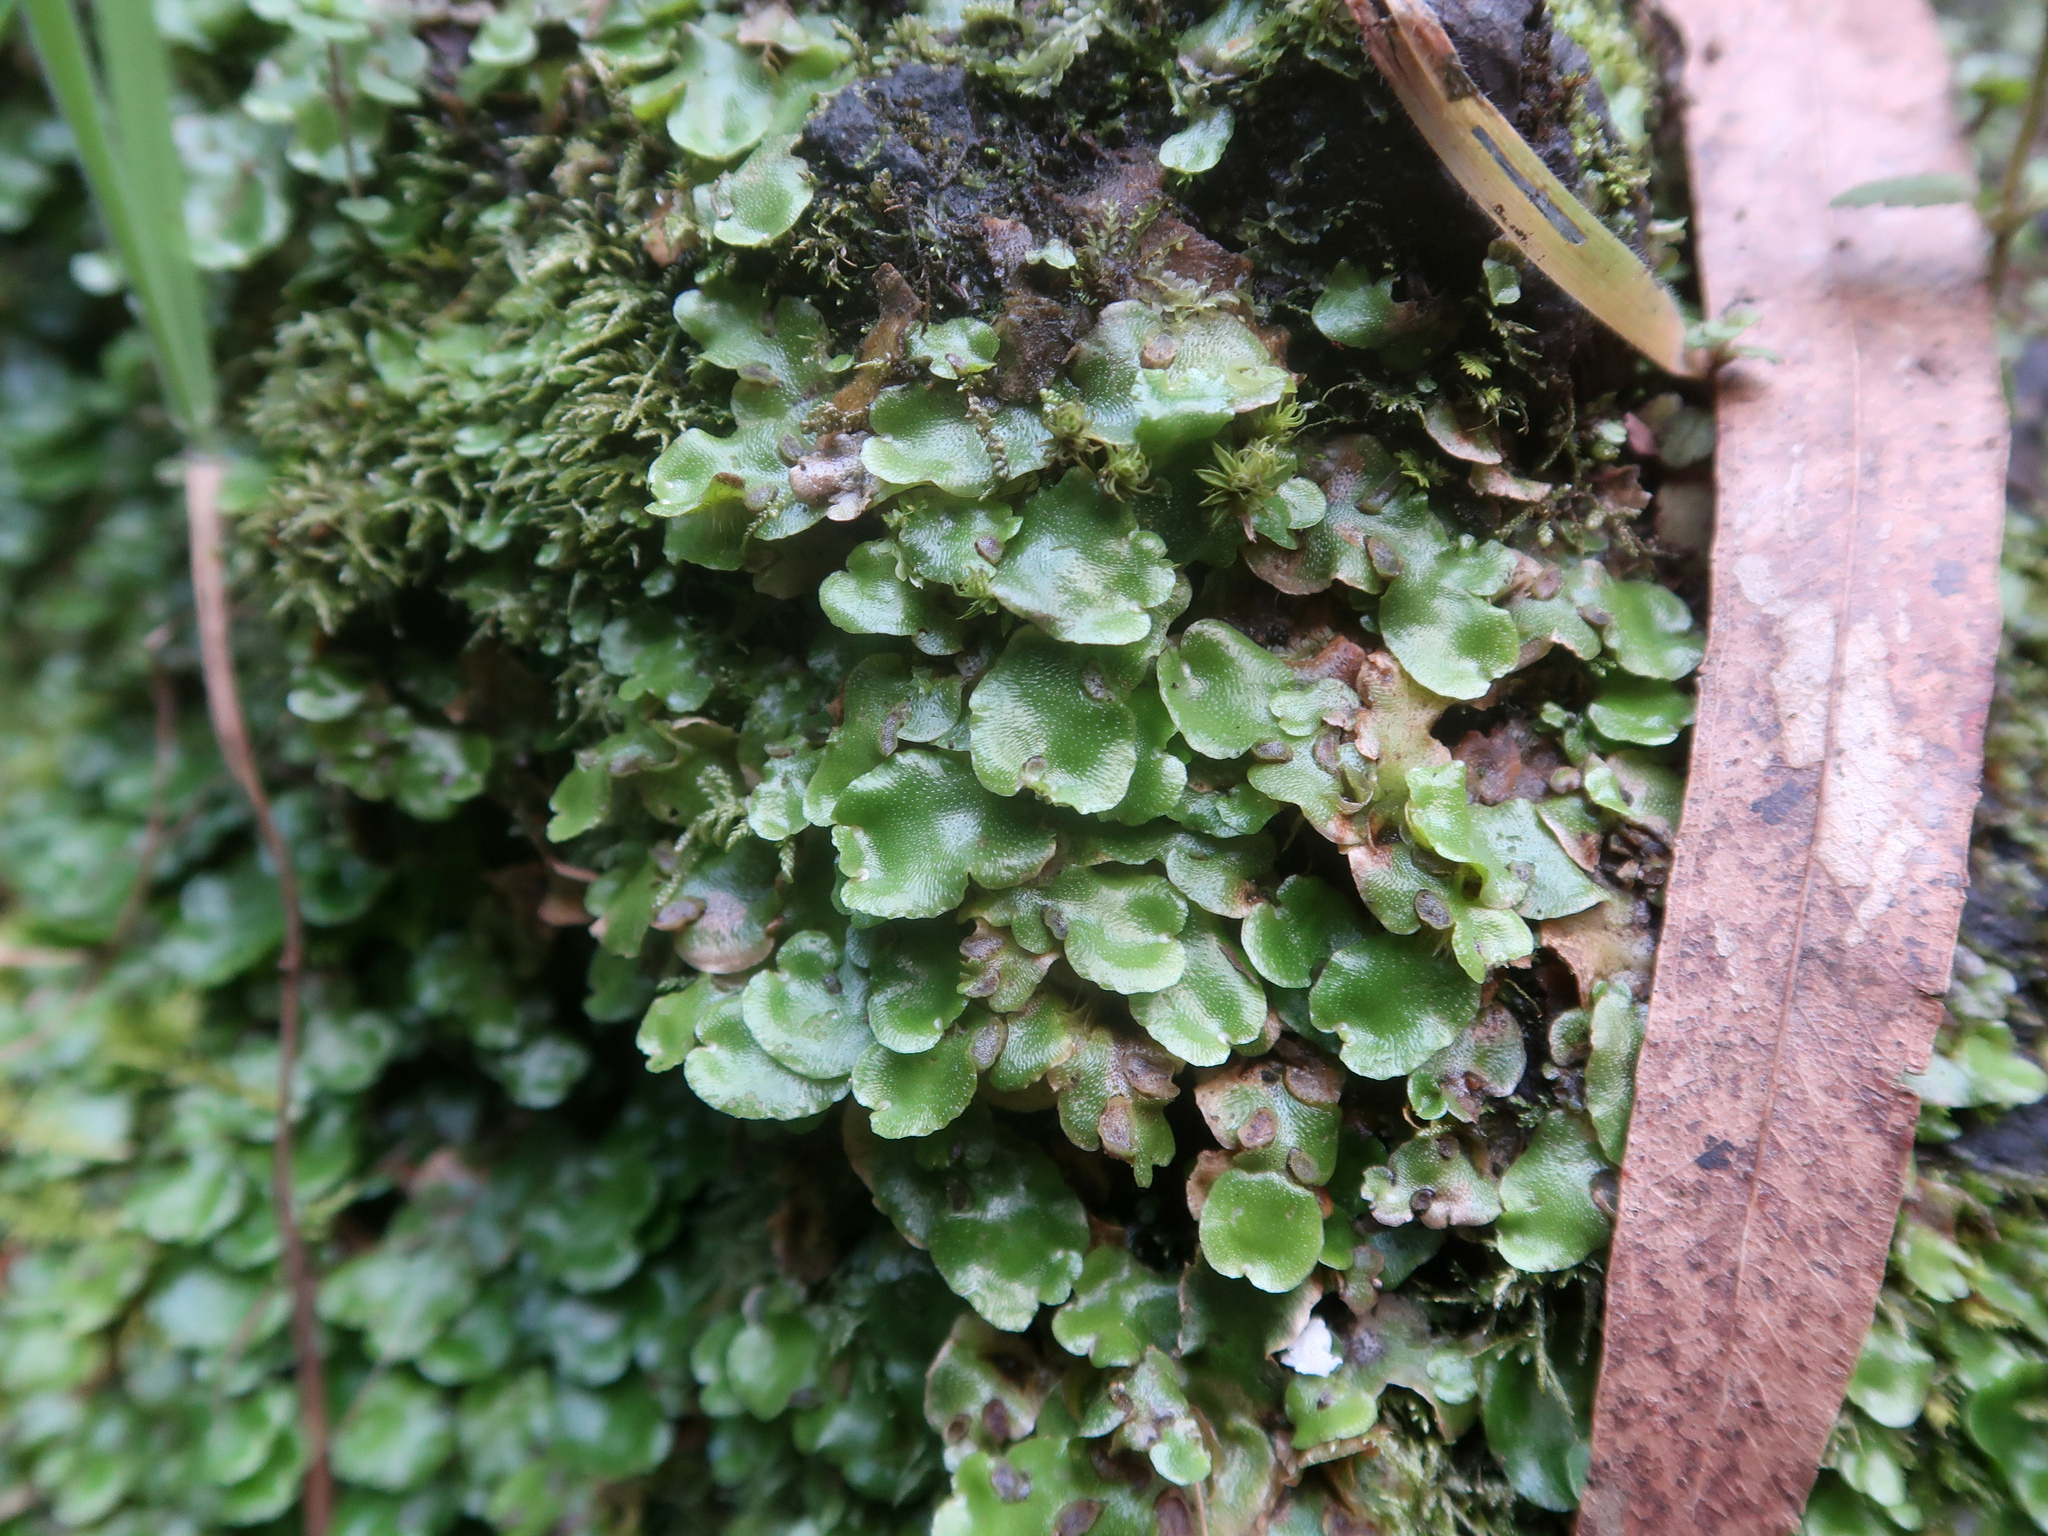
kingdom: Plantae
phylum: Marchantiophyta
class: Marchantiopsida
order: Lunulariales
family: Lunulariaceae
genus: Lunularia
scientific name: Lunularia cruciata
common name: Crescent-cup liverwort
